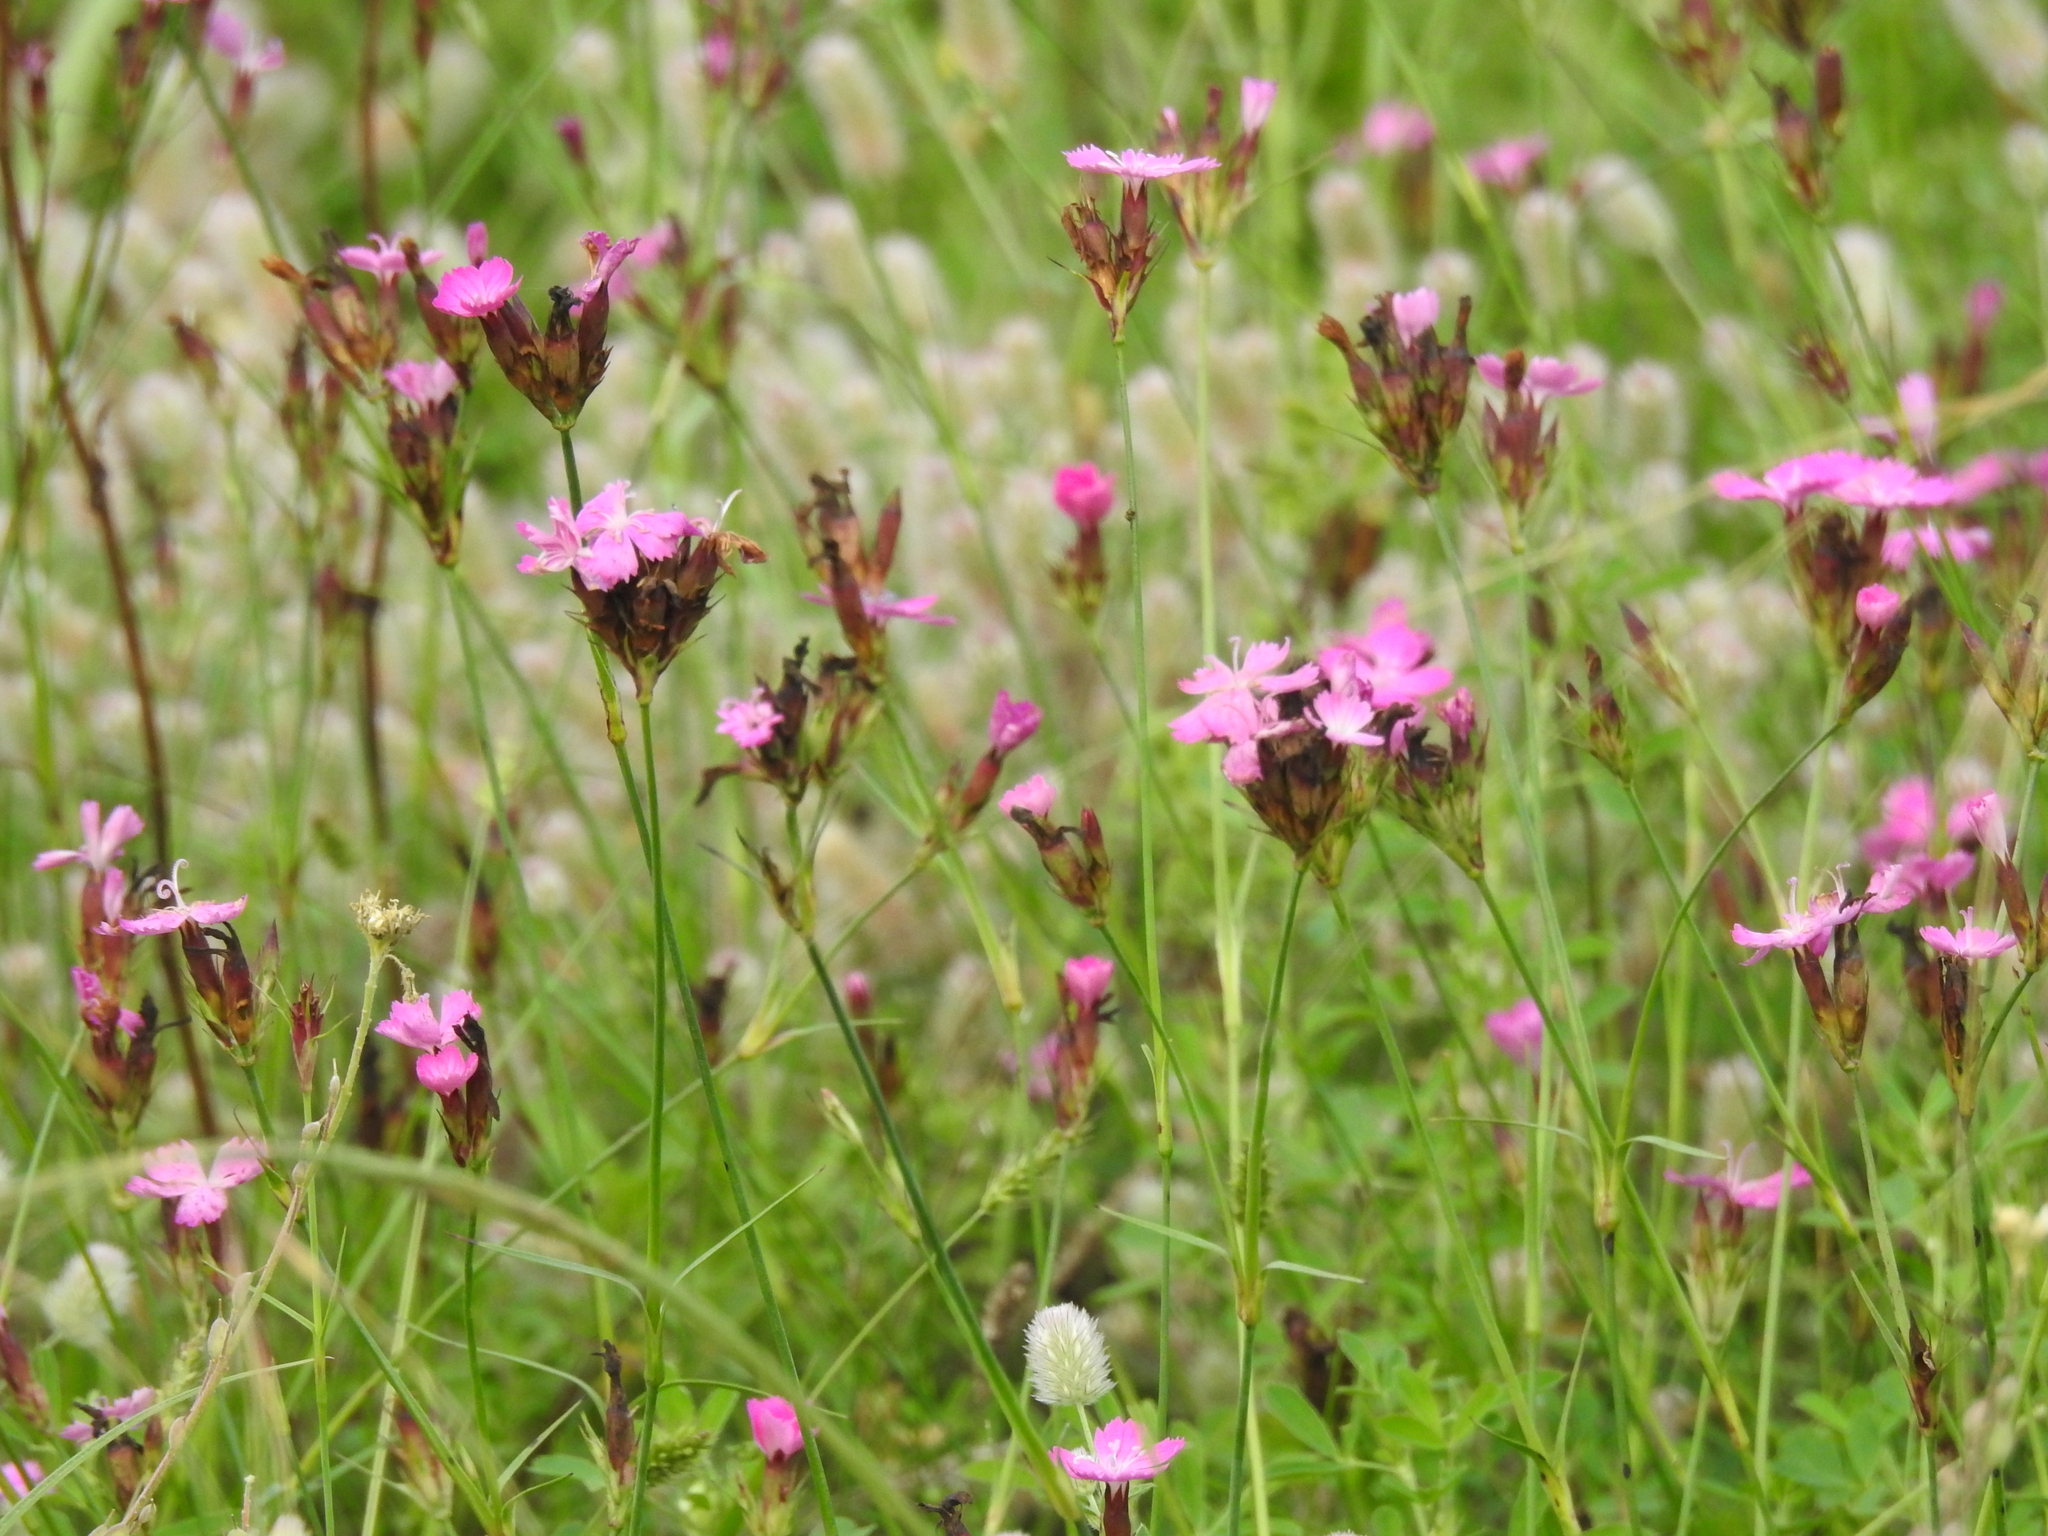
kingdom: Plantae
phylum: Tracheophyta
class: Magnoliopsida
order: Caryophyllales
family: Caryophyllaceae
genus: Dianthus
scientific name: Dianthus carthusianorum
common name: Carthusian pink
